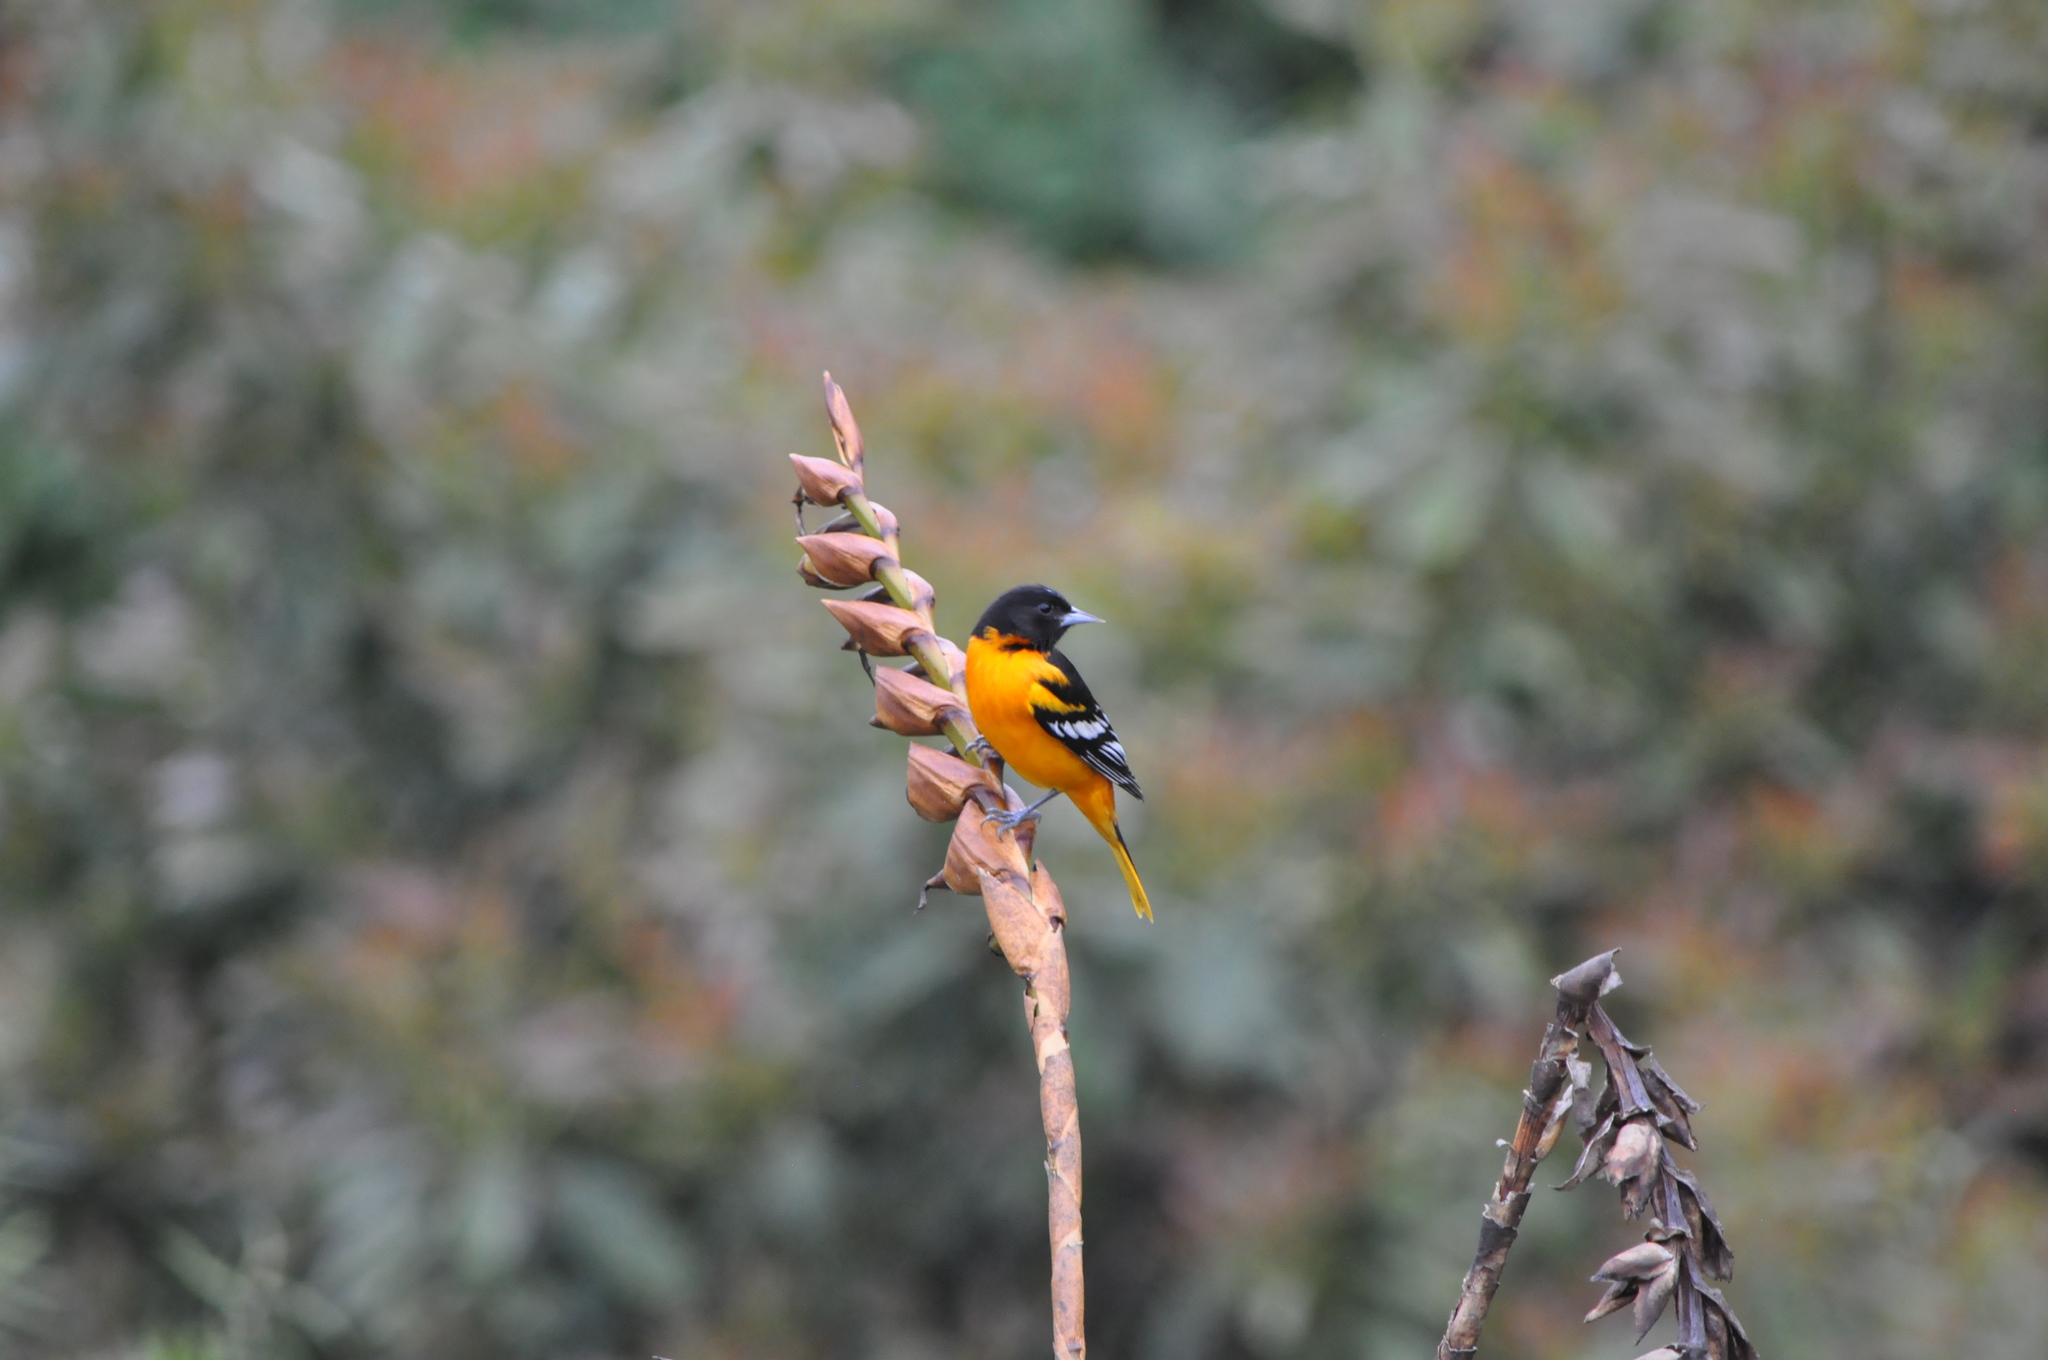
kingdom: Animalia
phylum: Chordata
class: Aves
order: Passeriformes
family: Icteridae
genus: Icterus
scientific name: Icterus galbula
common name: Baltimore oriole
